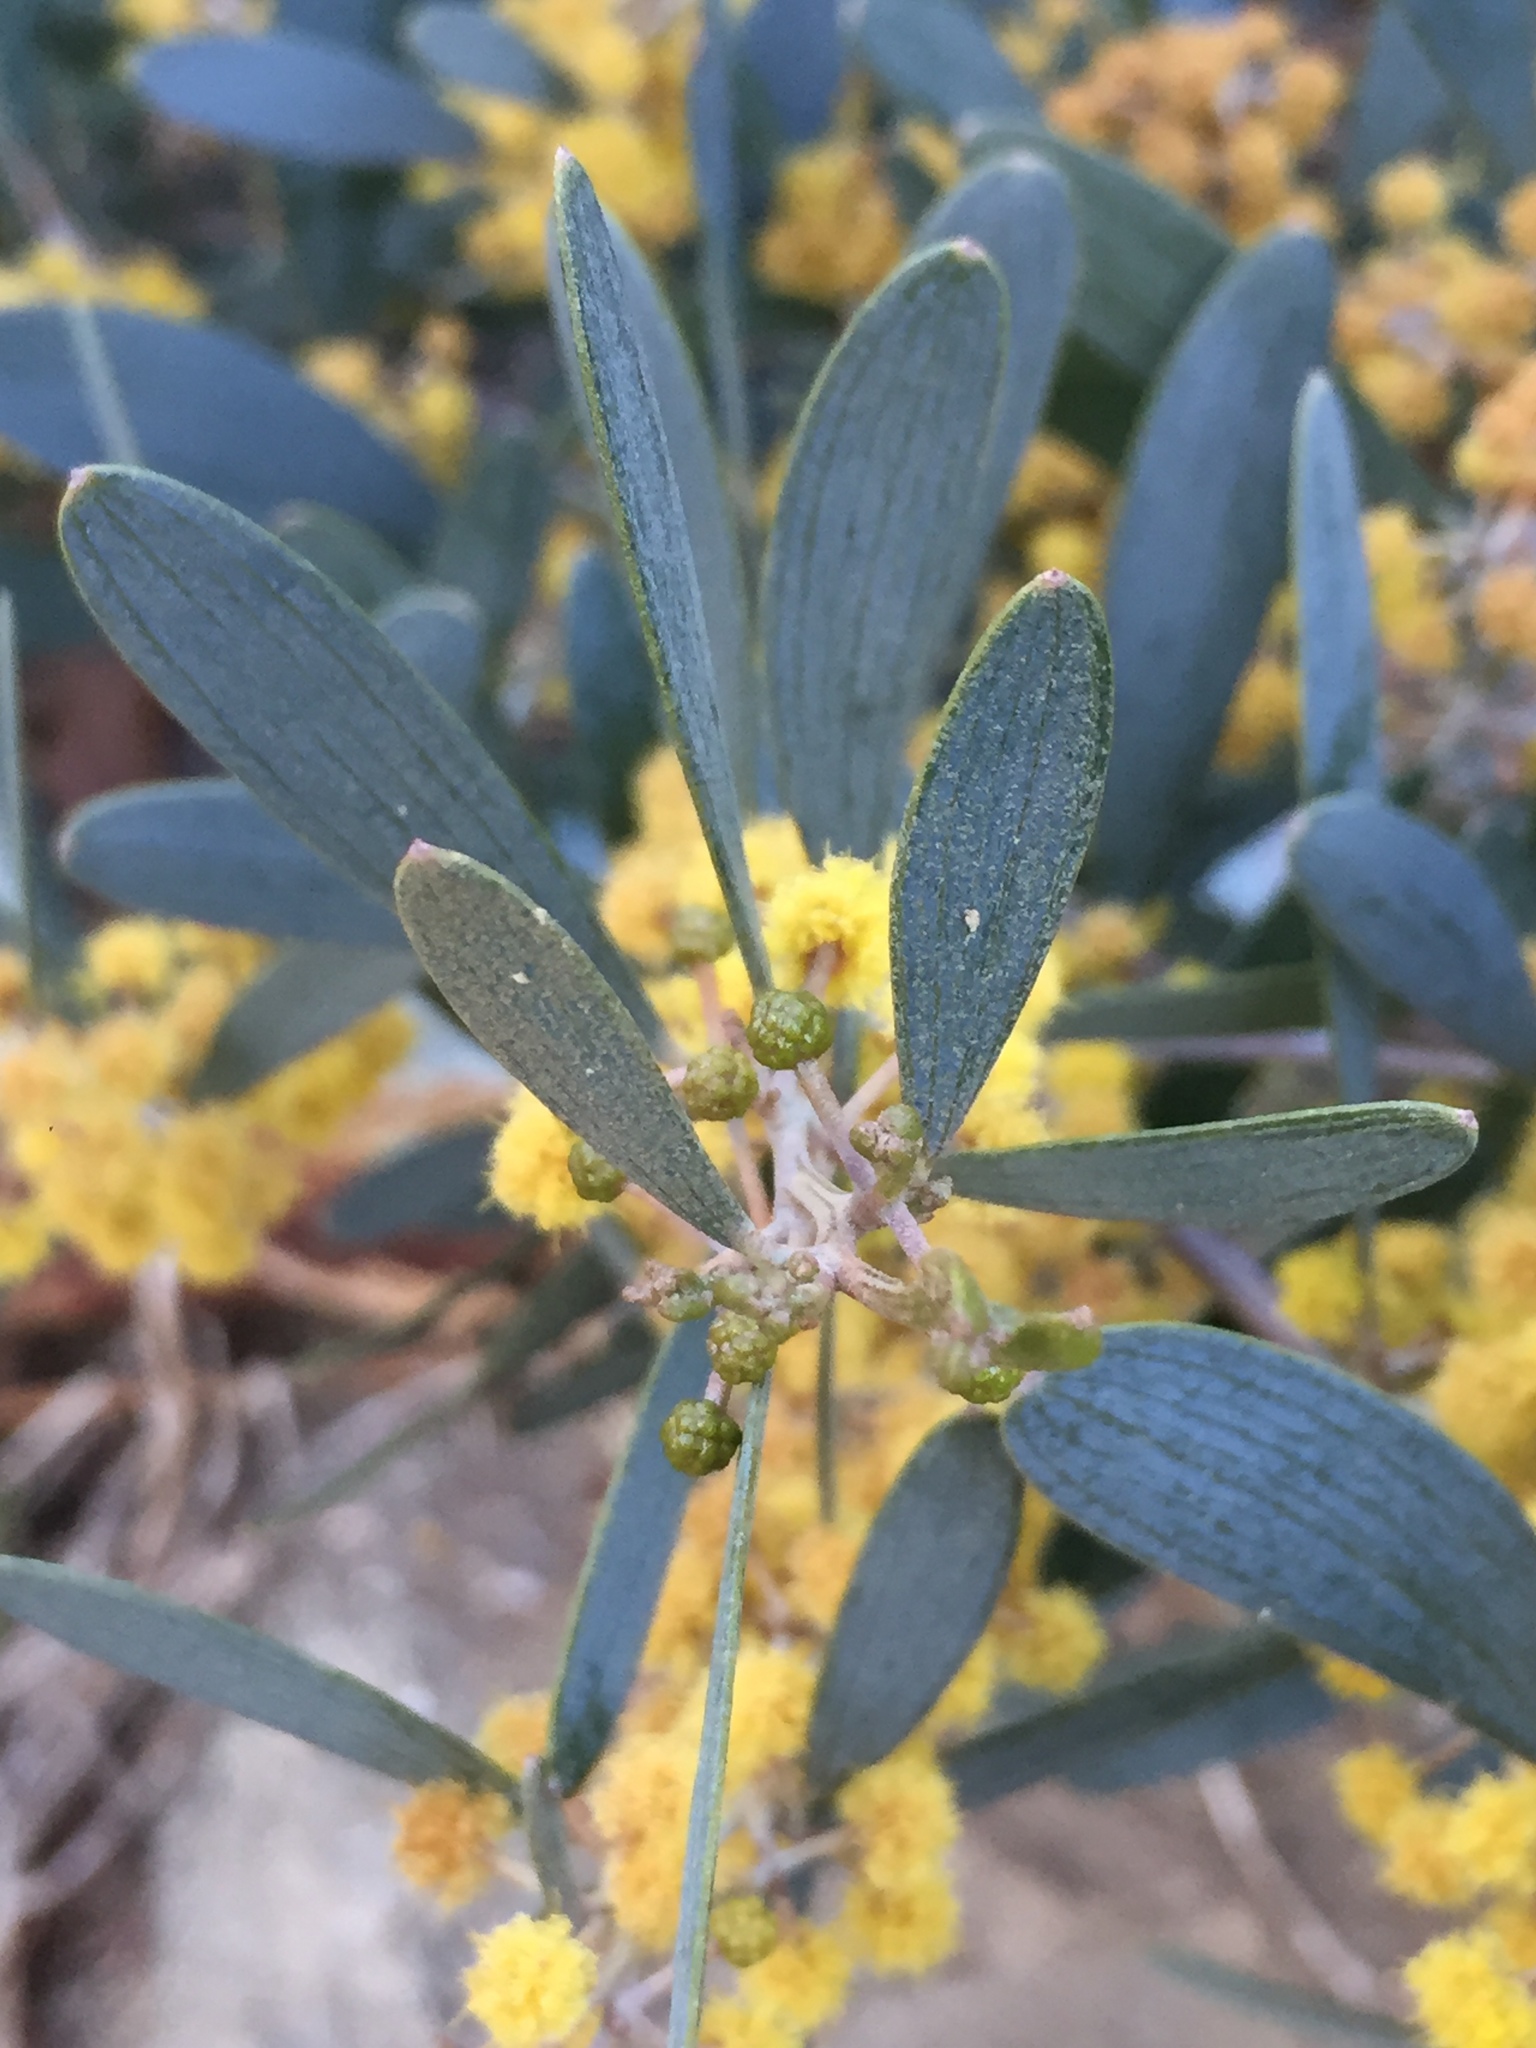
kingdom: Plantae
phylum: Tracheophyta
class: Magnoliopsida
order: Fabales
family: Fabaceae
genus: Acacia
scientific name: Acacia redolens
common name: Bank catclaw
